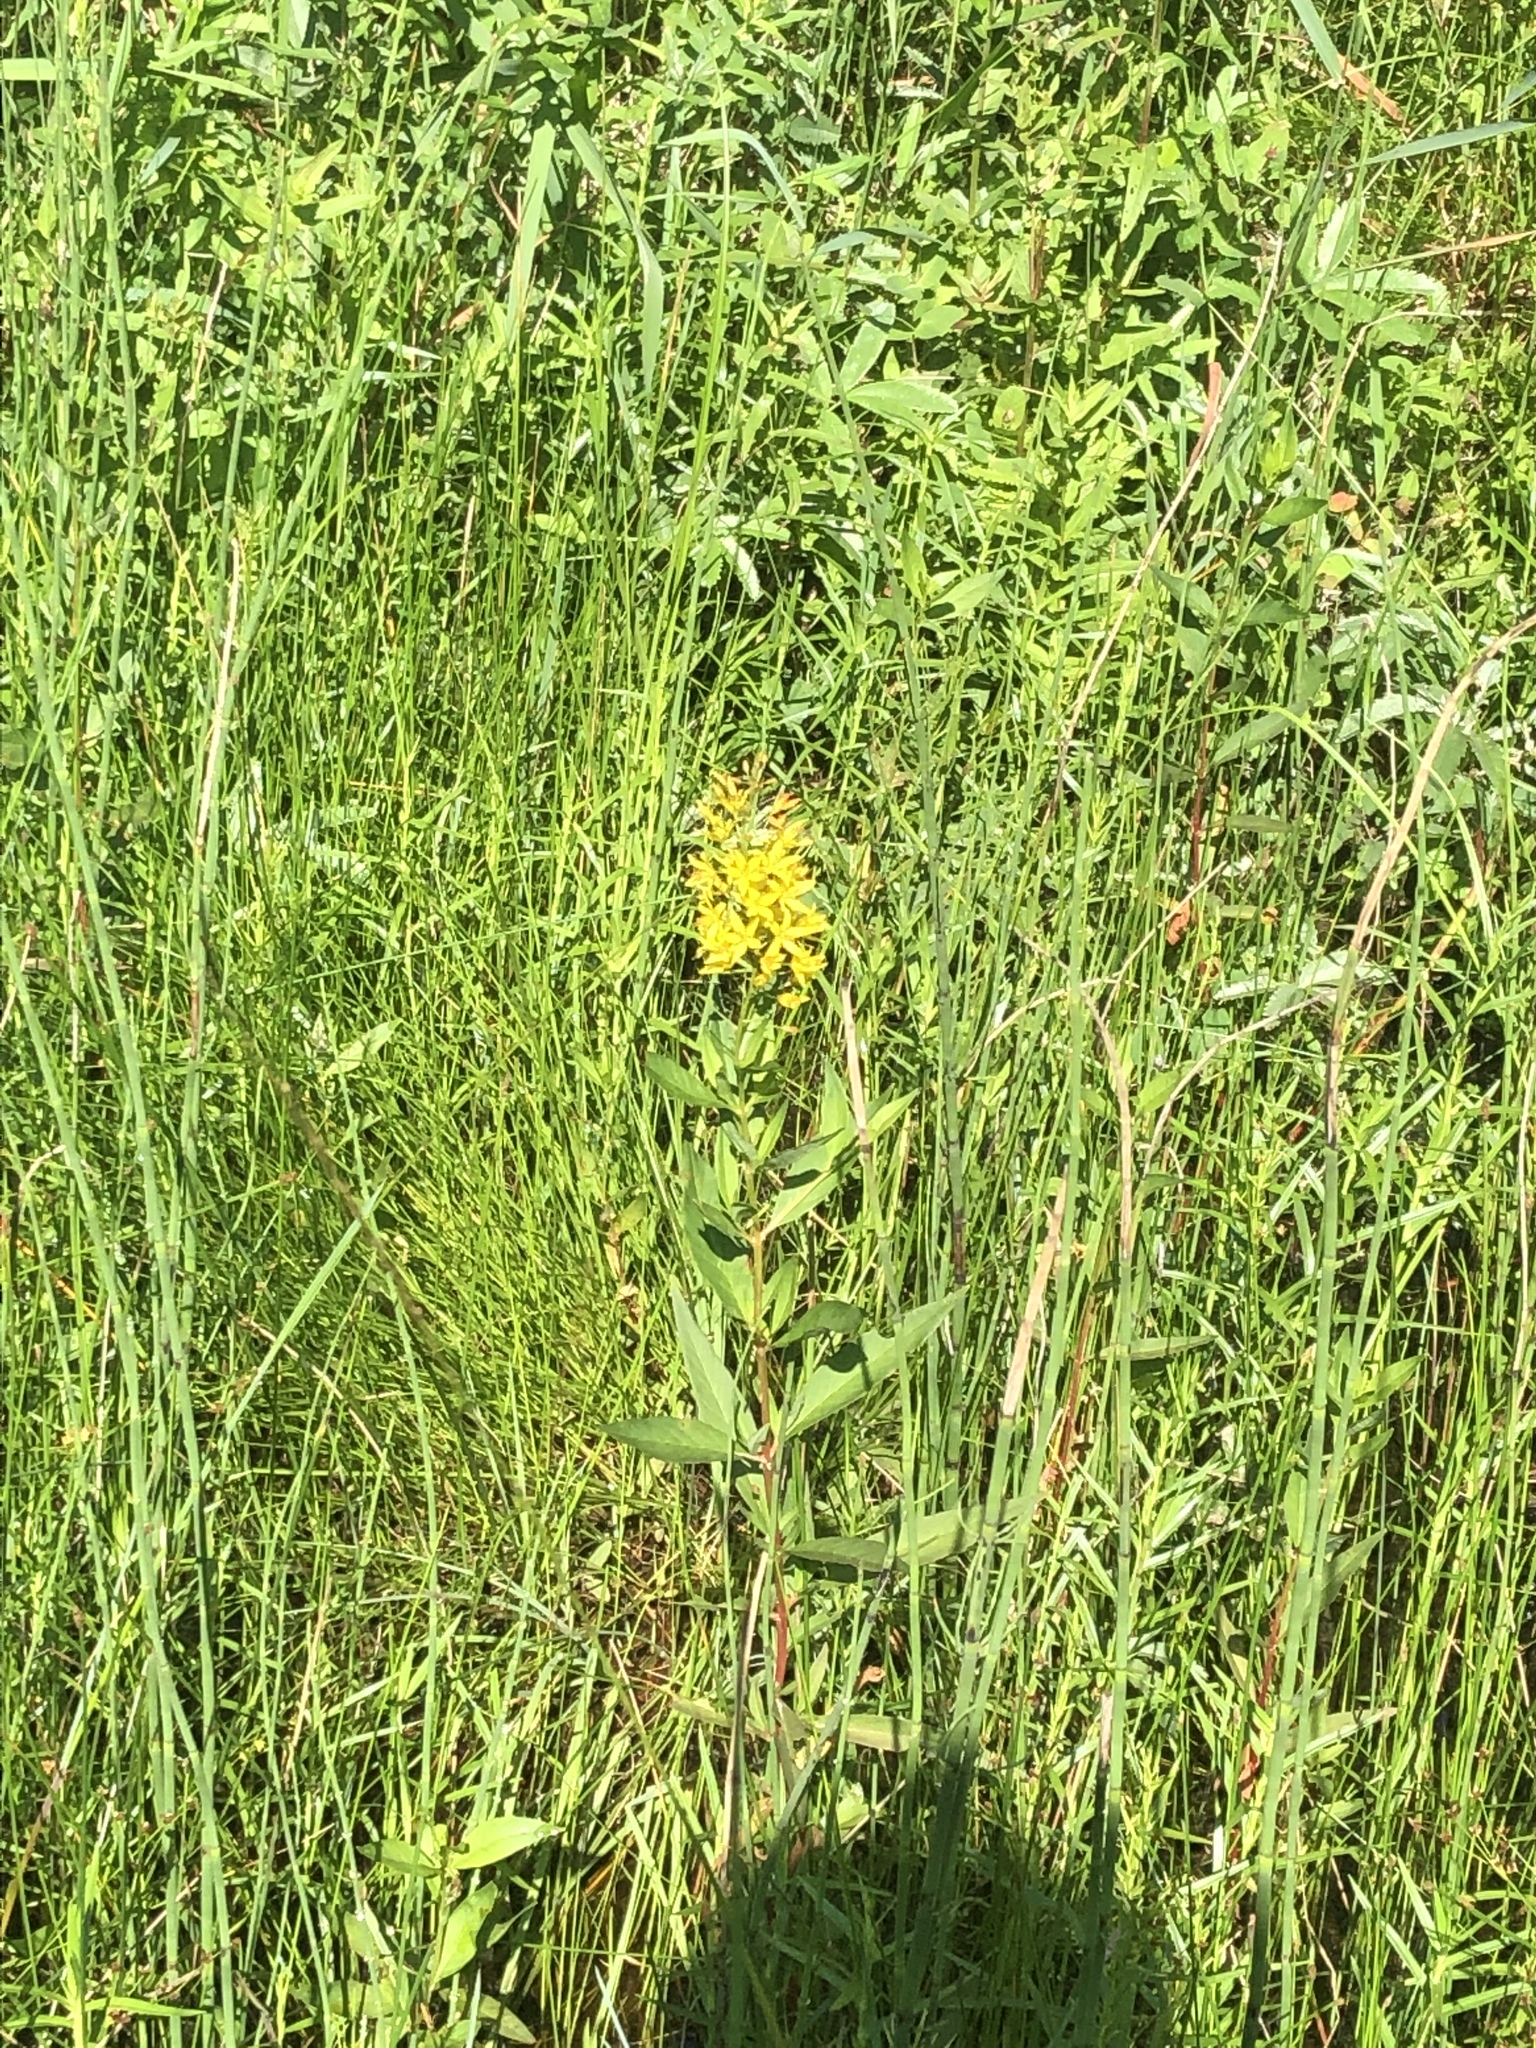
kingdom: Plantae
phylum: Tracheophyta
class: Magnoliopsida
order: Ericales
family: Primulaceae
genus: Lysimachia
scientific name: Lysimachia terrestris
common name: Lake loosestrife
